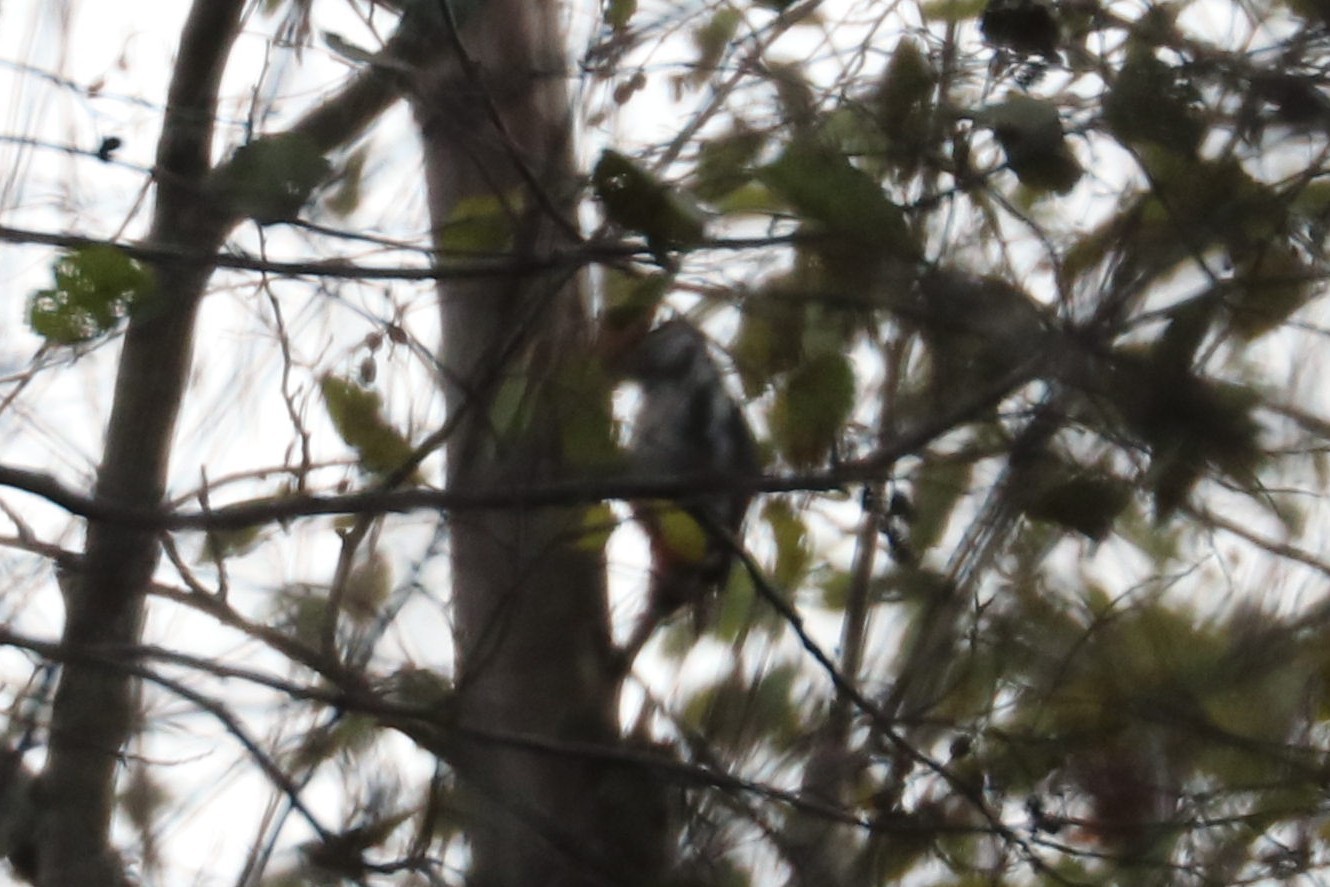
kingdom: Animalia
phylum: Chordata
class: Aves
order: Piciformes
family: Picidae
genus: Dendrocopos
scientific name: Dendrocopos major
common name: Great spotted woodpecker
